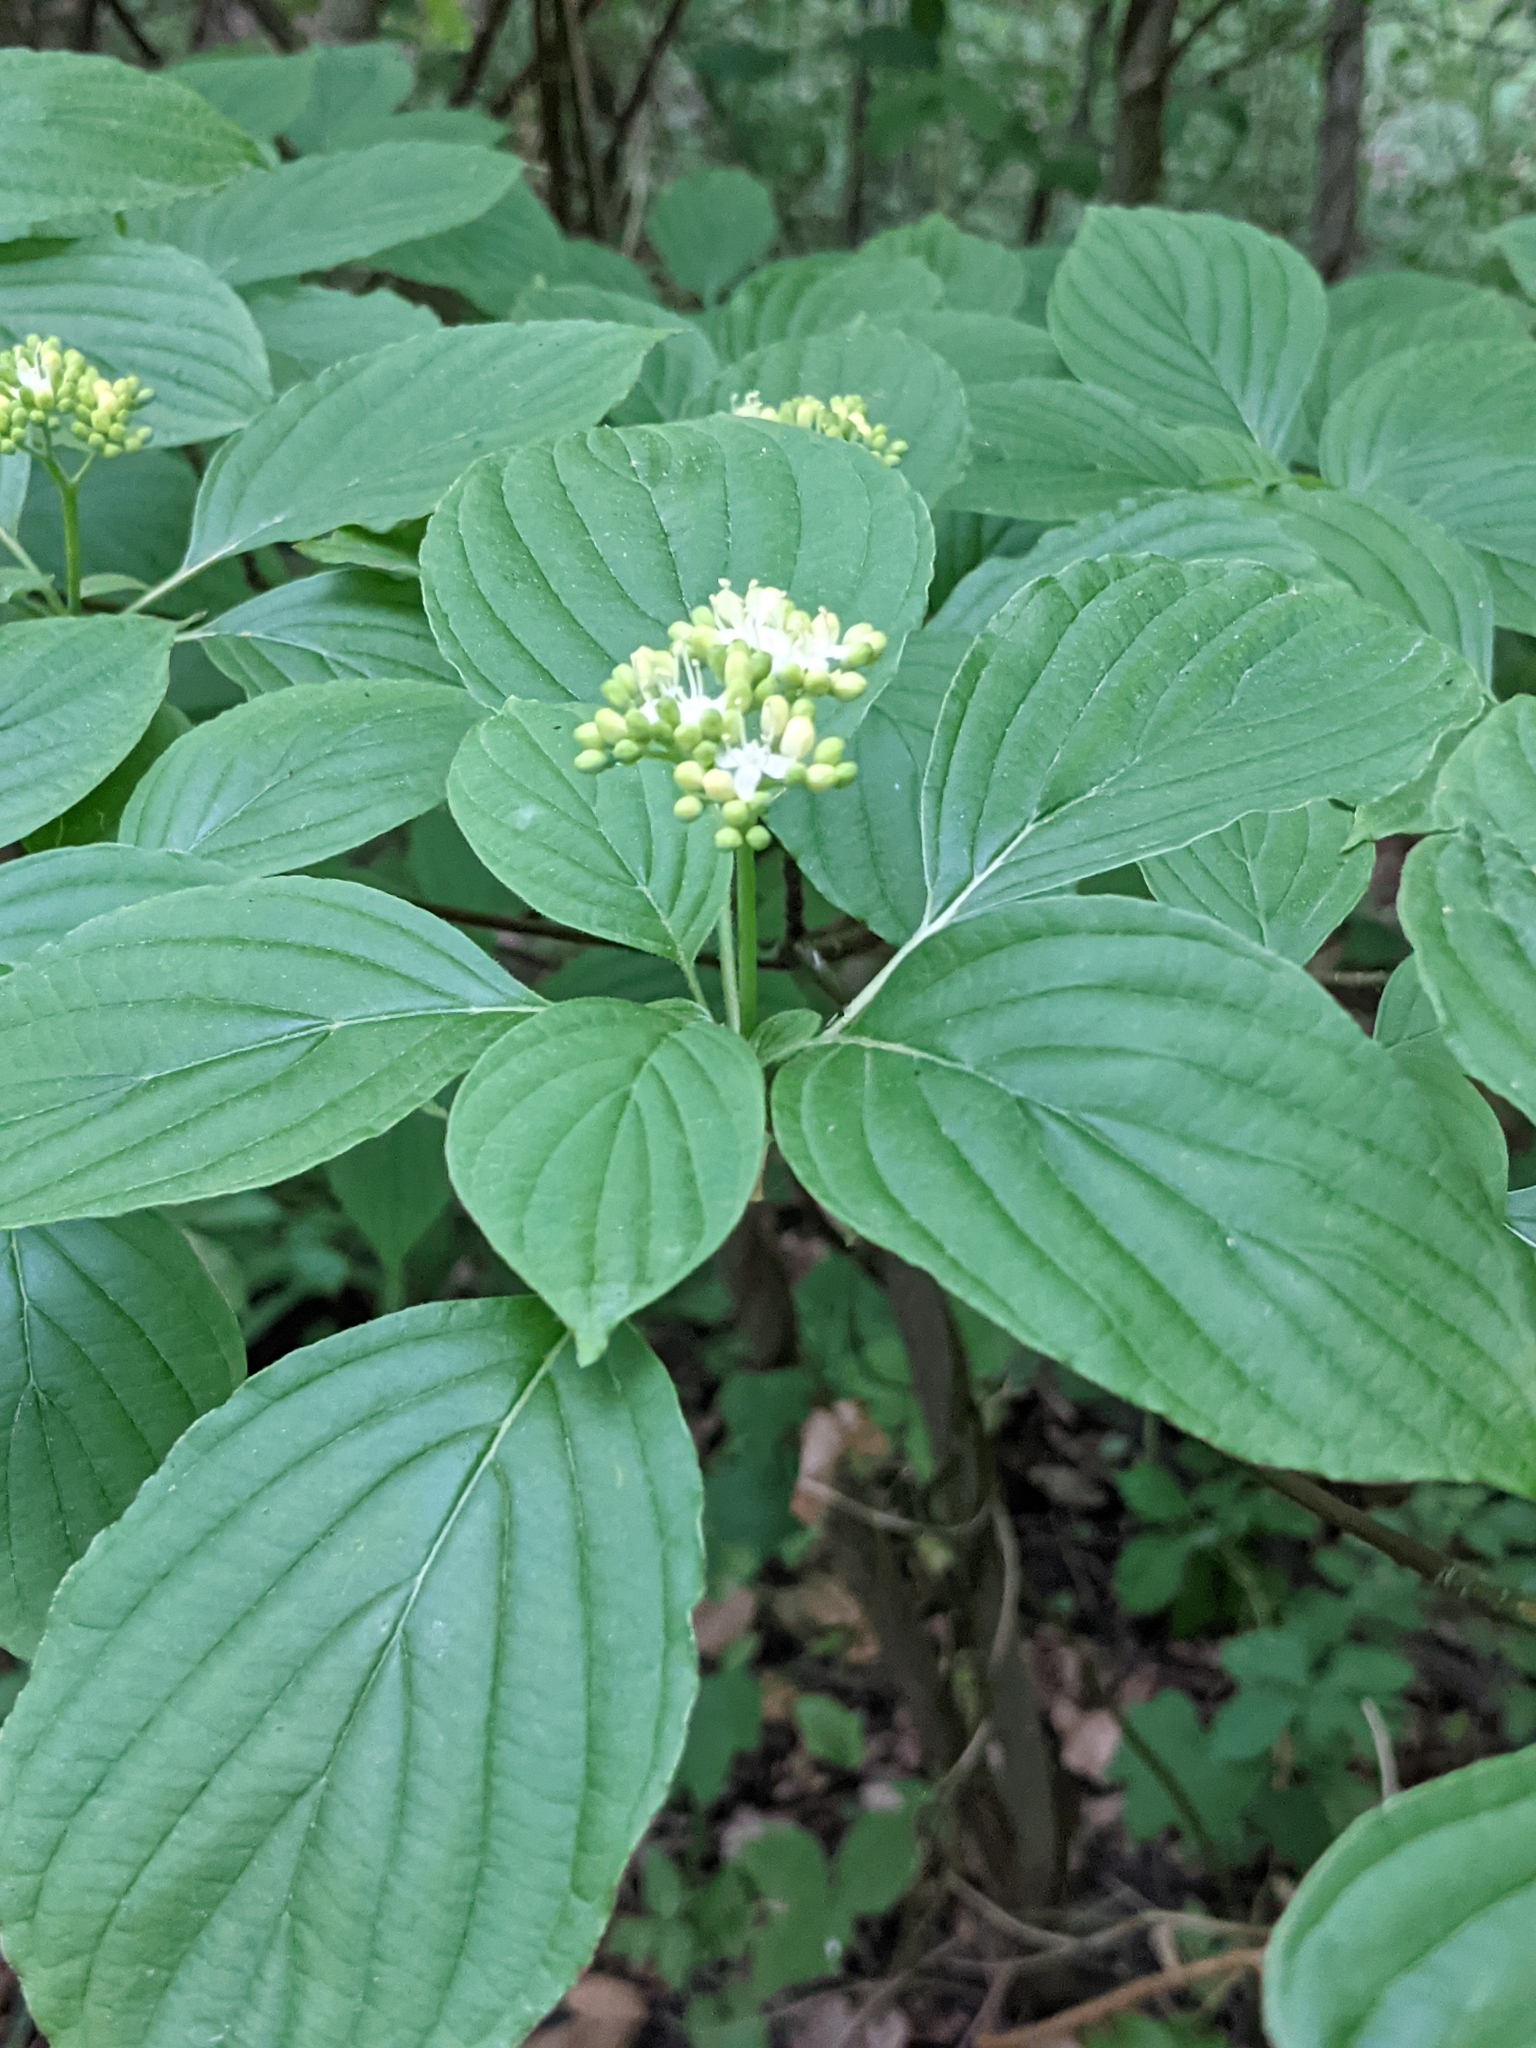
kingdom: Plantae
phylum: Tracheophyta
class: Magnoliopsida
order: Cornales
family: Cornaceae
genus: Cornus
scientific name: Cornus alternifolia
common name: Pagoda dogwood
